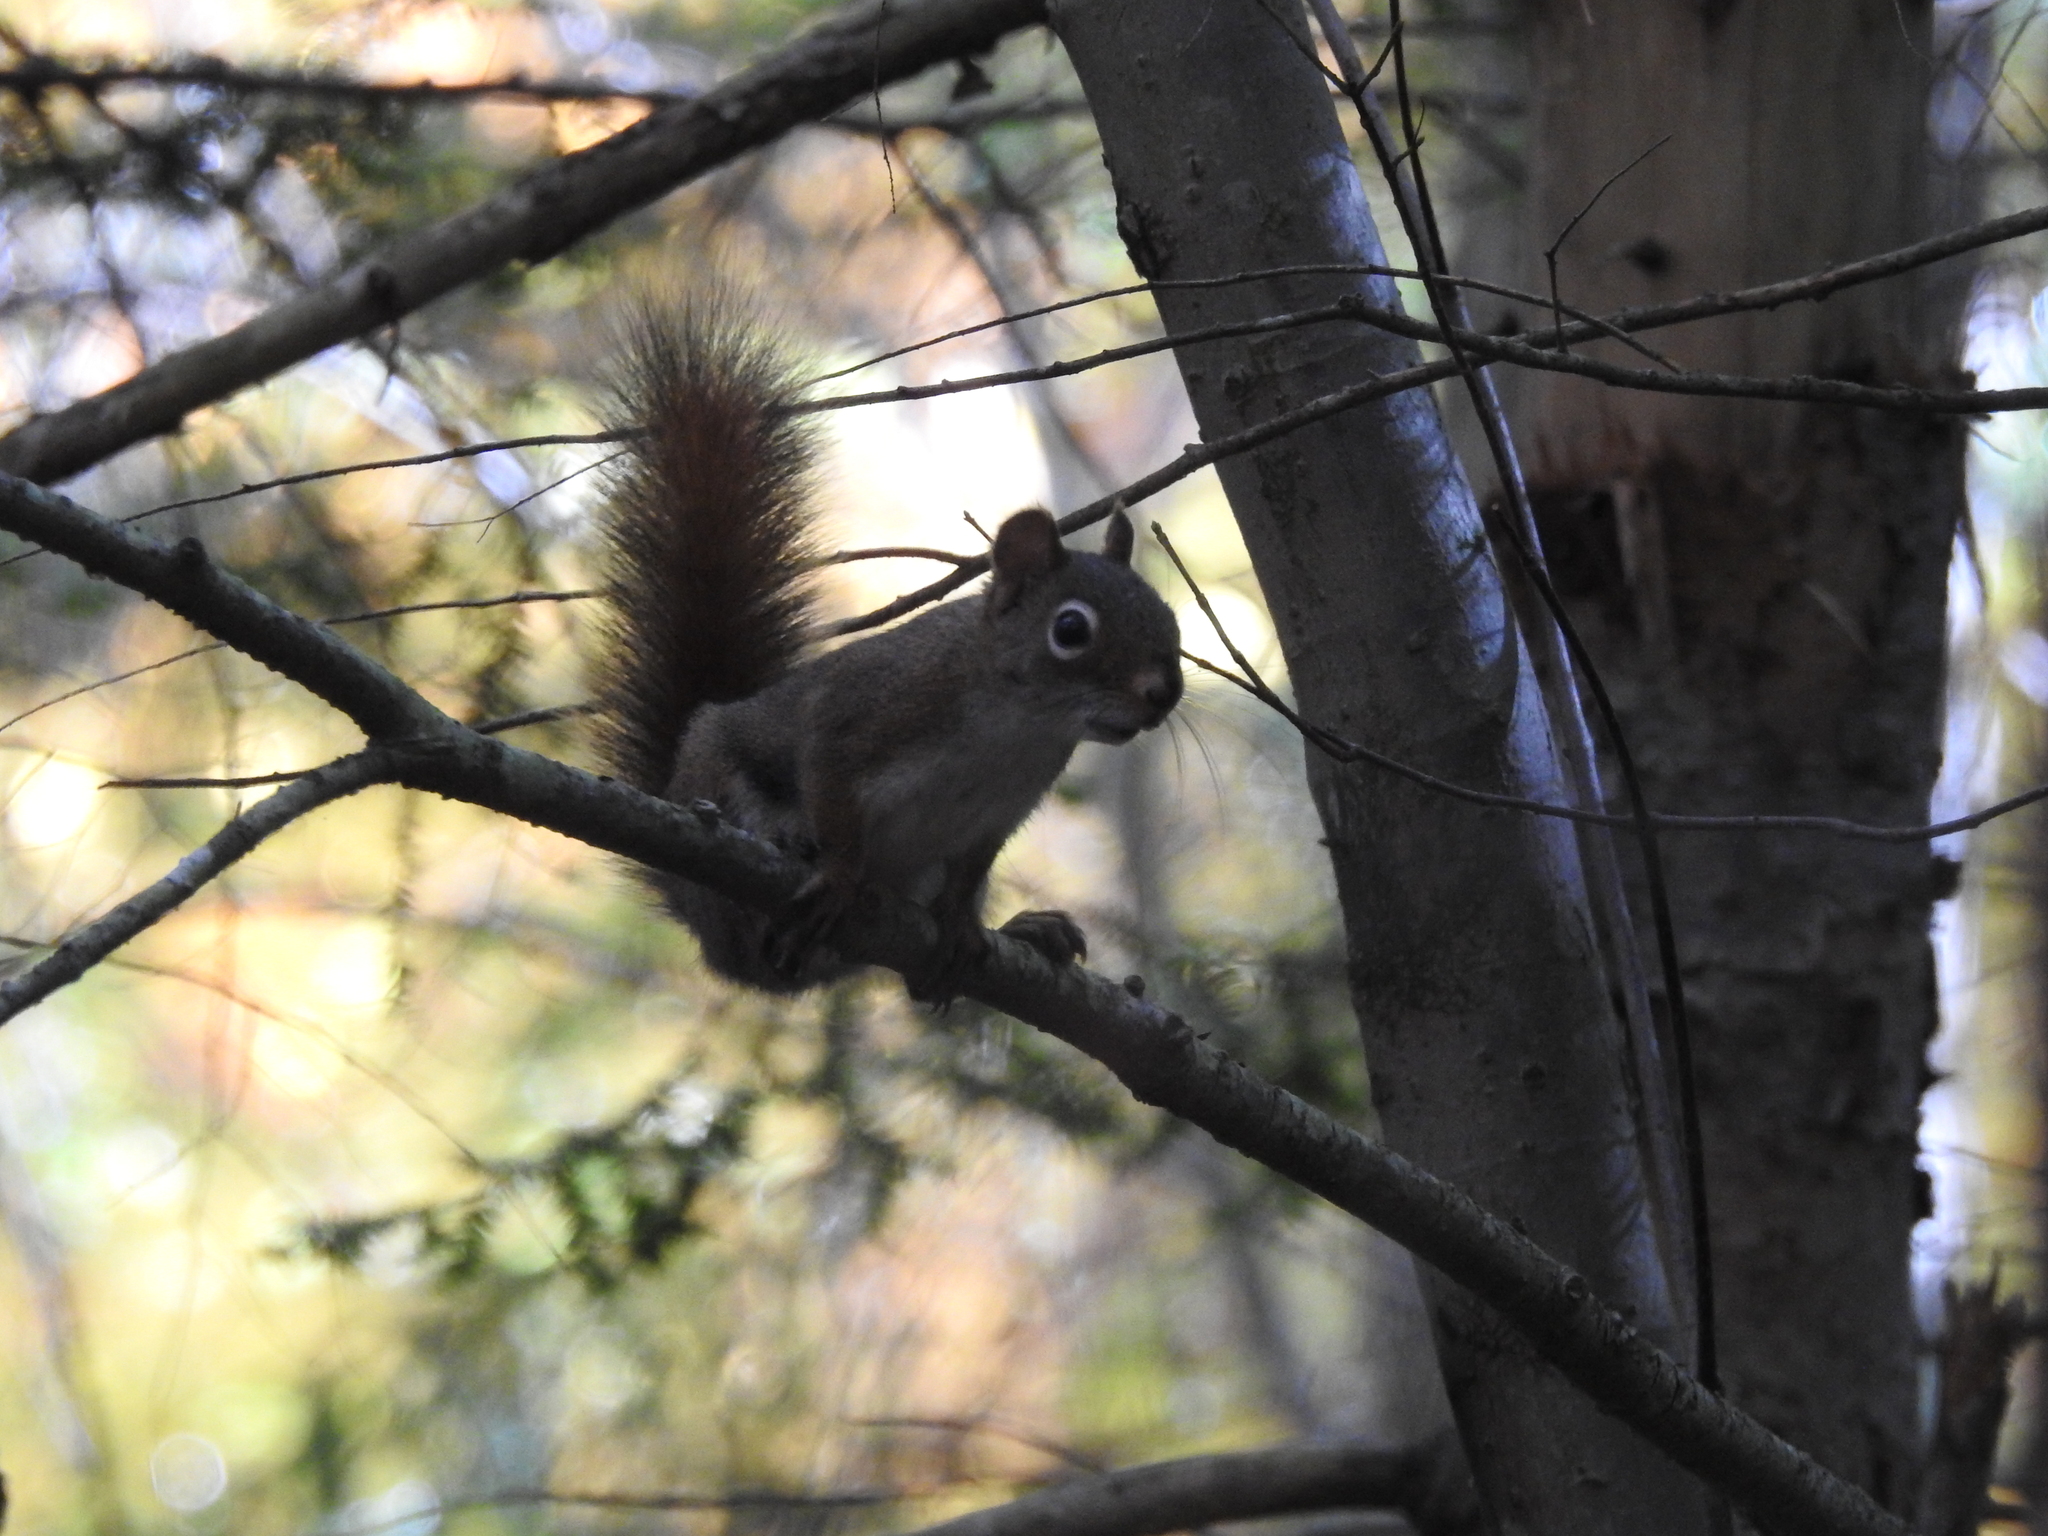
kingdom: Animalia
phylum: Chordata
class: Mammalia
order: Rodentia
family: Sciuridae
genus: Tamiasciurus
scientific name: Tamiasciurus hudsonicus
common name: Red squirrel
